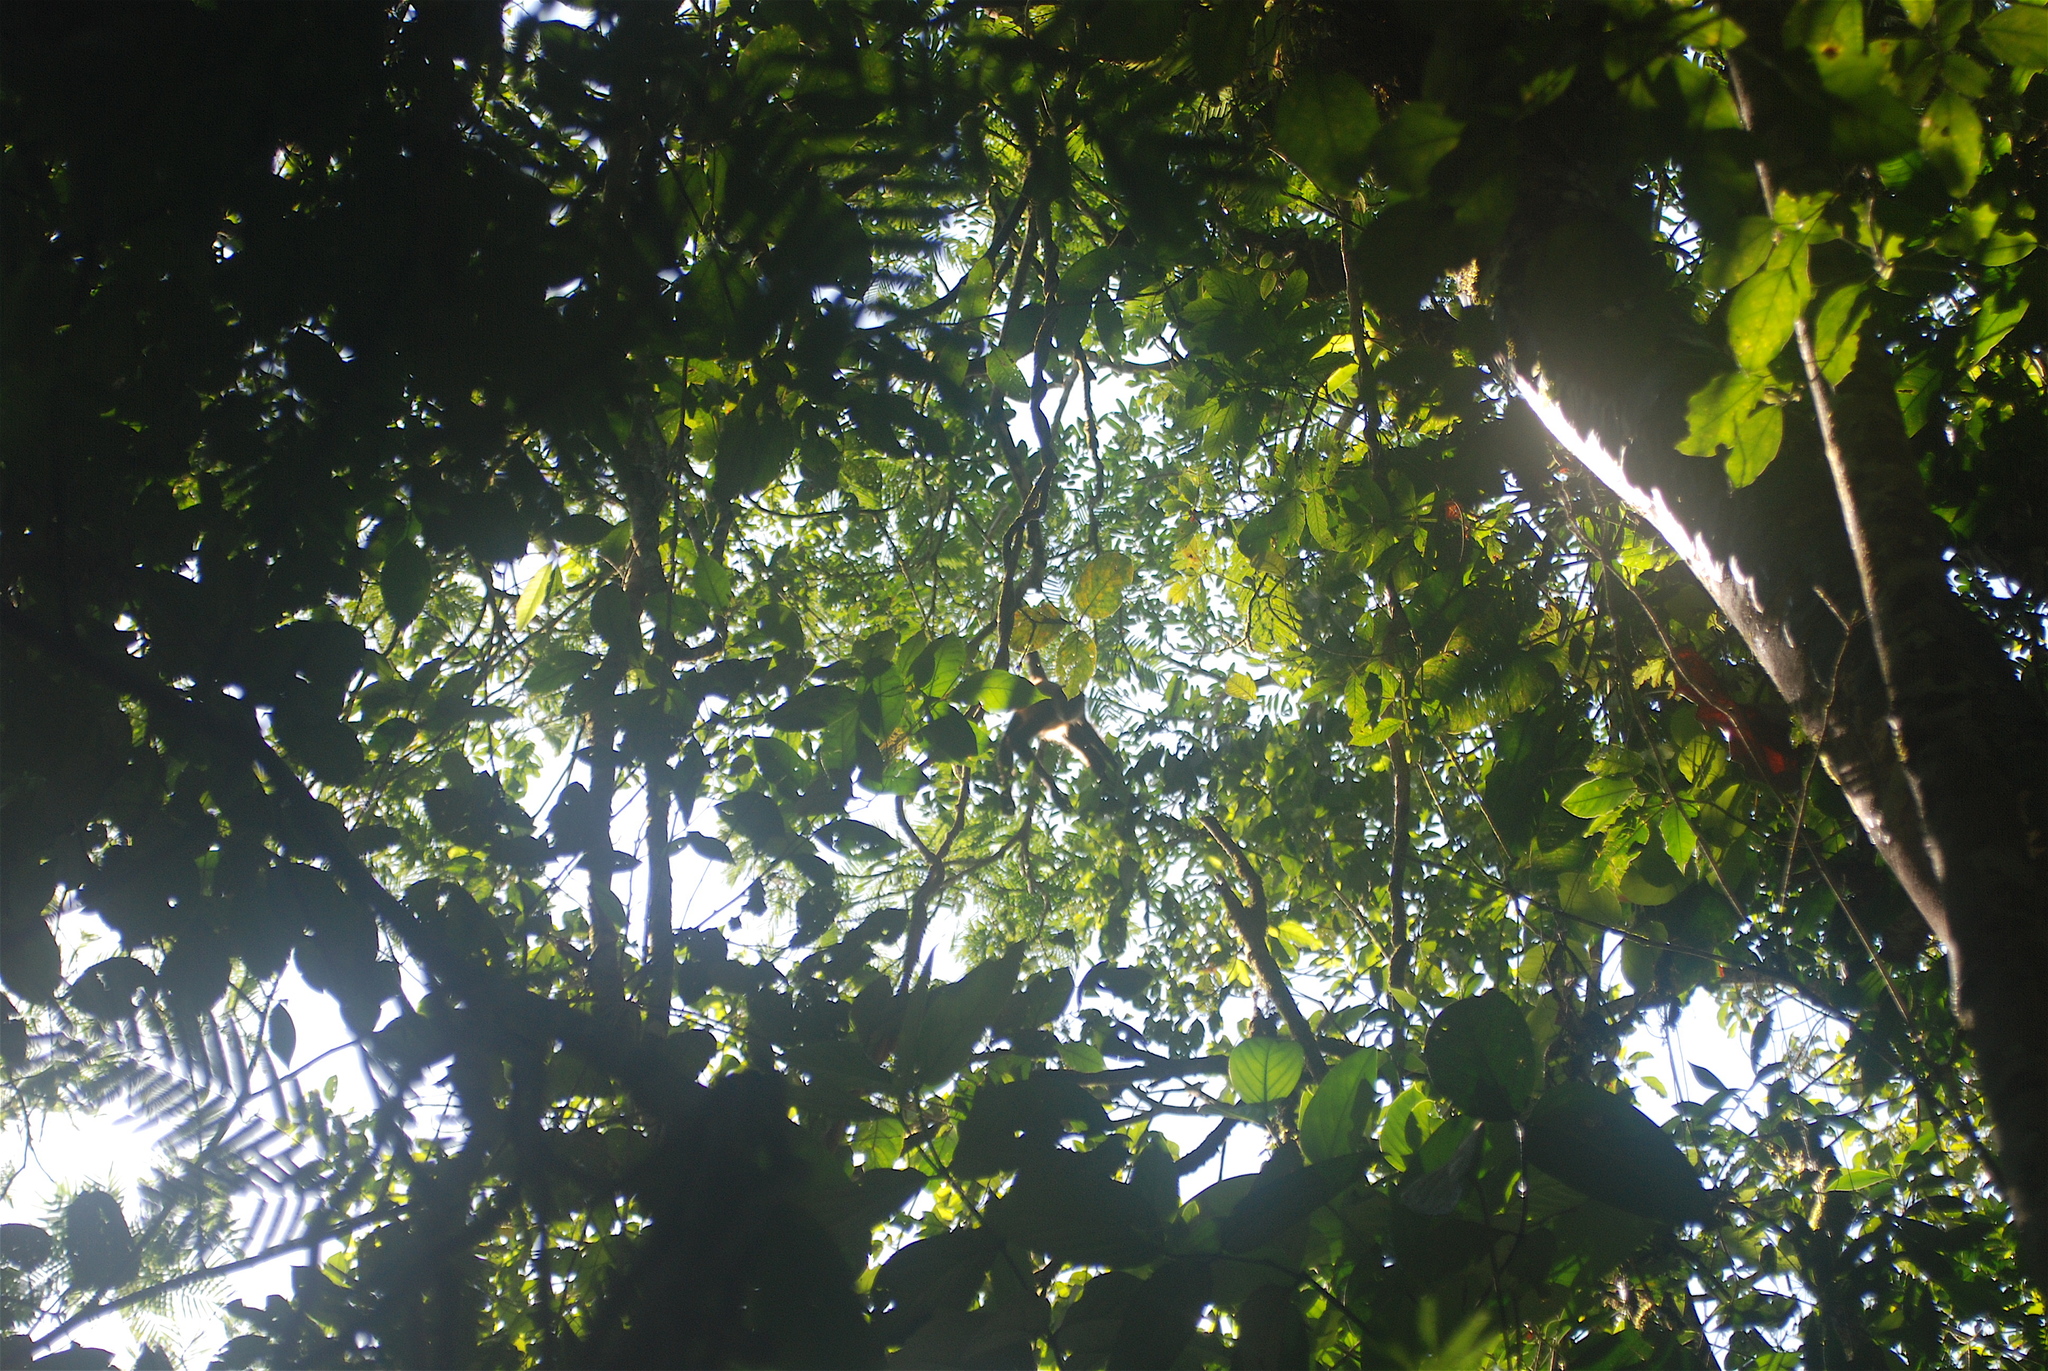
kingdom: Animalia
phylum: Chordata
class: Mammalia
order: Primates
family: Atelidae
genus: Ateles
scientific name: Ateles geoffroyi
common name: Black-handed spider monkey
